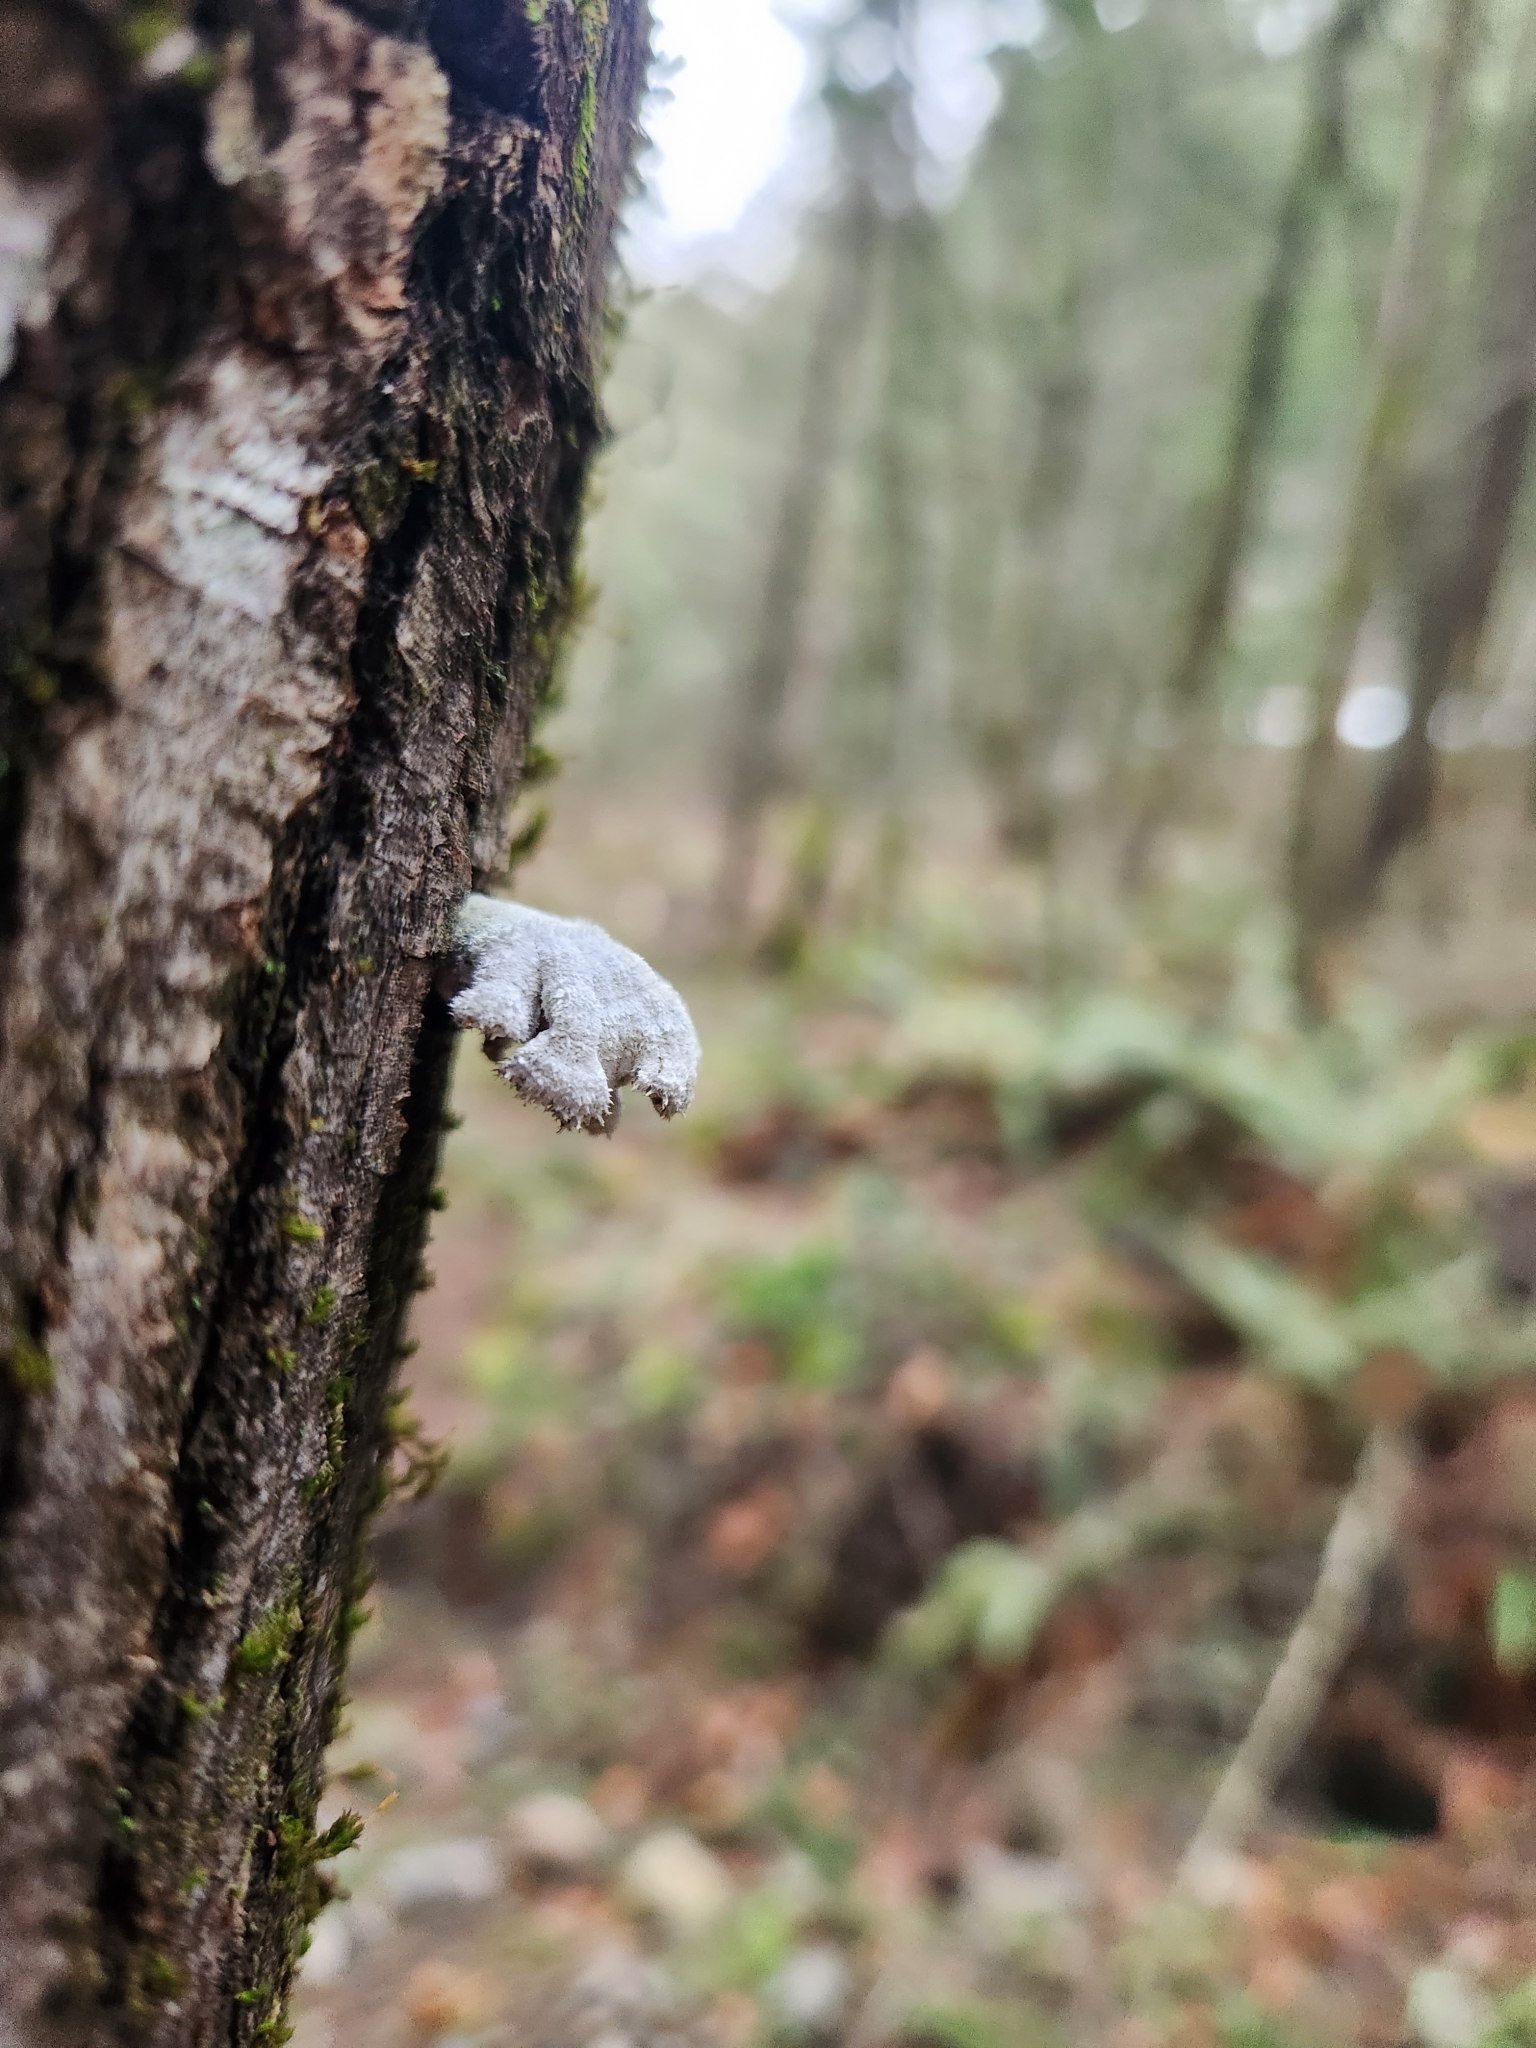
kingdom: Fungi
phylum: Basidiomycota
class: Agaricomycetes
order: Agaricales
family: Schizophyllaceae
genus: Schizophyllum
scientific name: Schizophyllum commune
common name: Common porecrust
